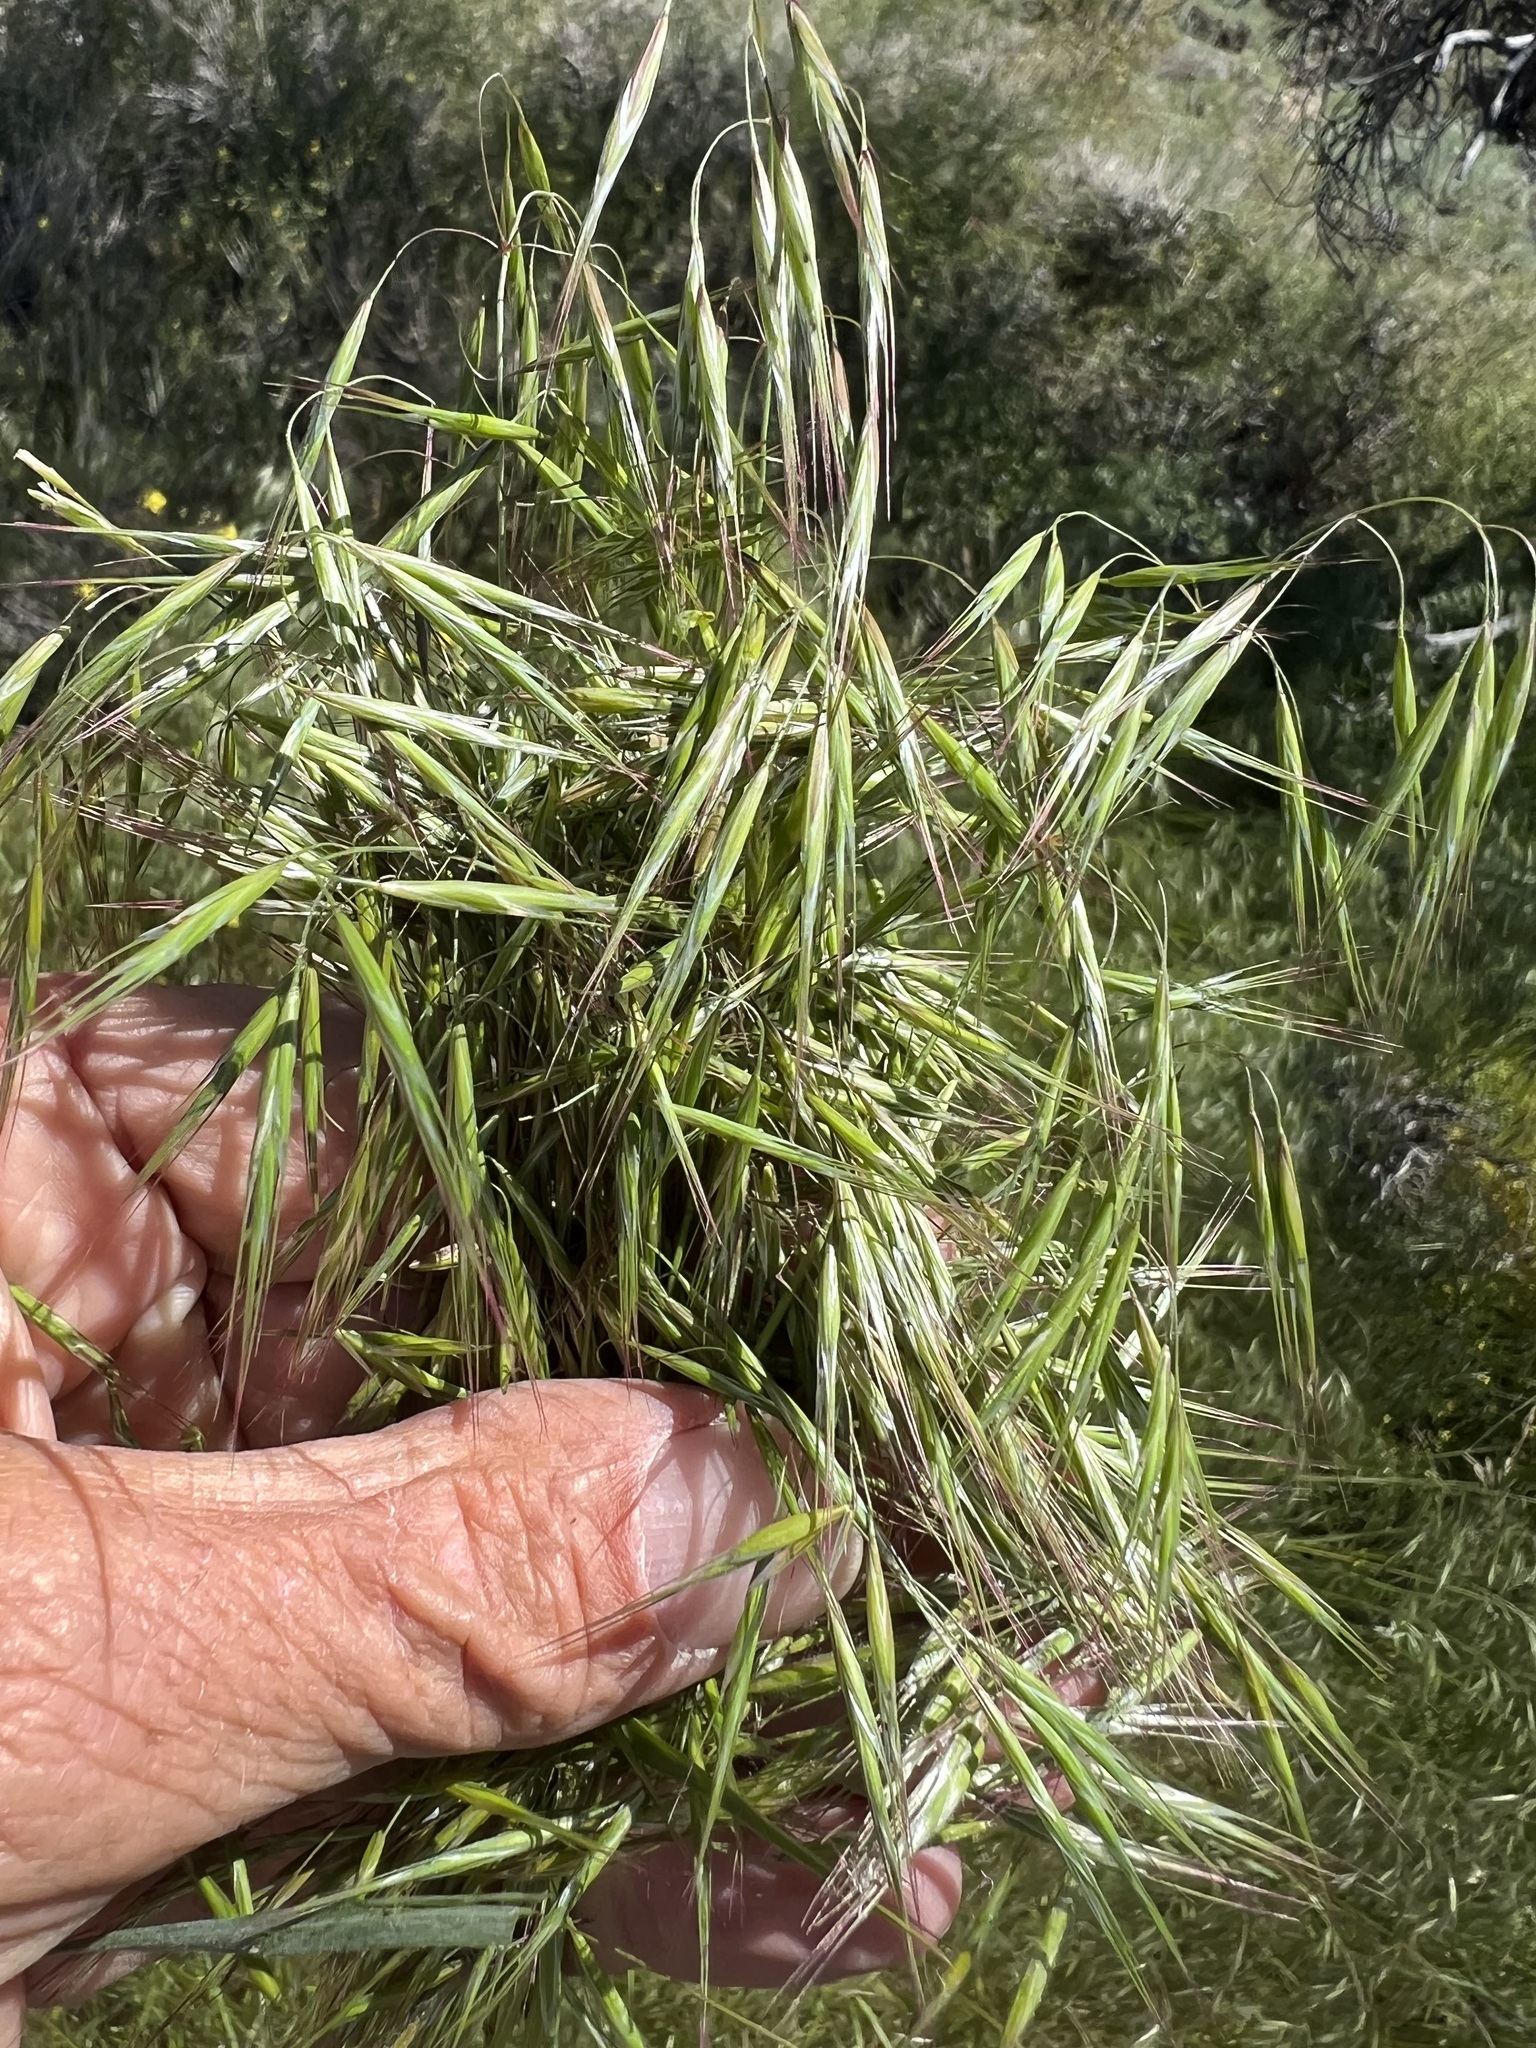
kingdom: Plantae
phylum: Tracheophyta
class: Liliopsida
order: Poales
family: Poaceae
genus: Bromus
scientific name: Bromus tectorum
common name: Cheatgrass
